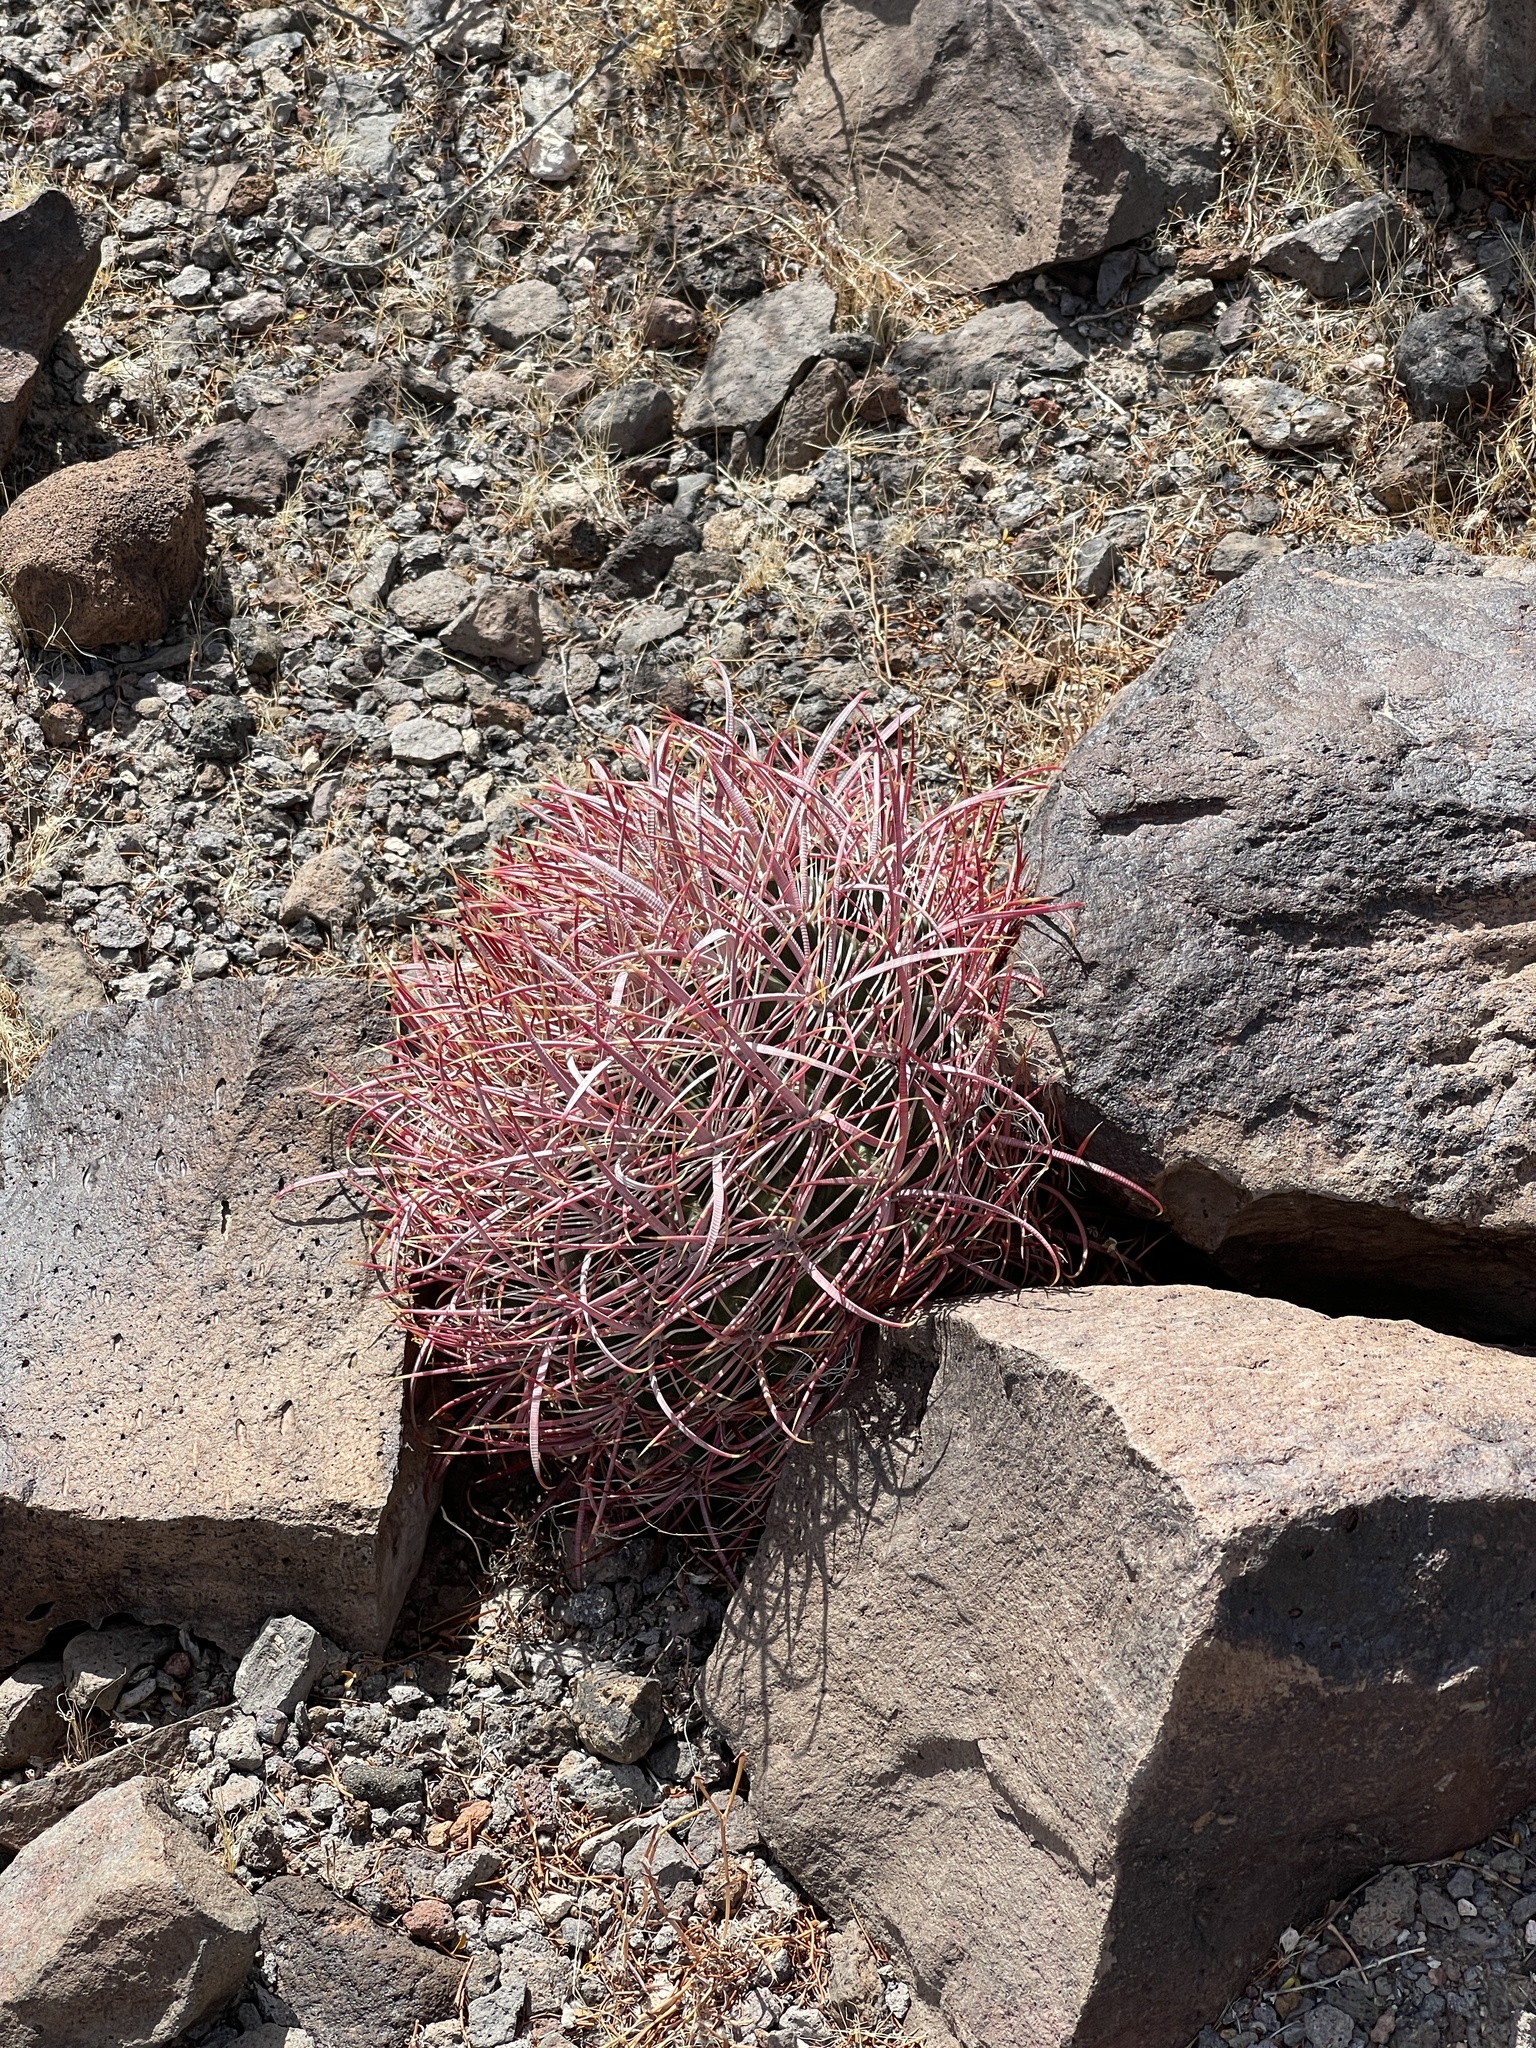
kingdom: Plantae
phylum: Tracheophyta
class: Magnoliopsida
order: Caryophyllales
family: Cactaceae
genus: Ferocactus
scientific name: Ferocactus cylindraceus
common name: California barrel cactus
